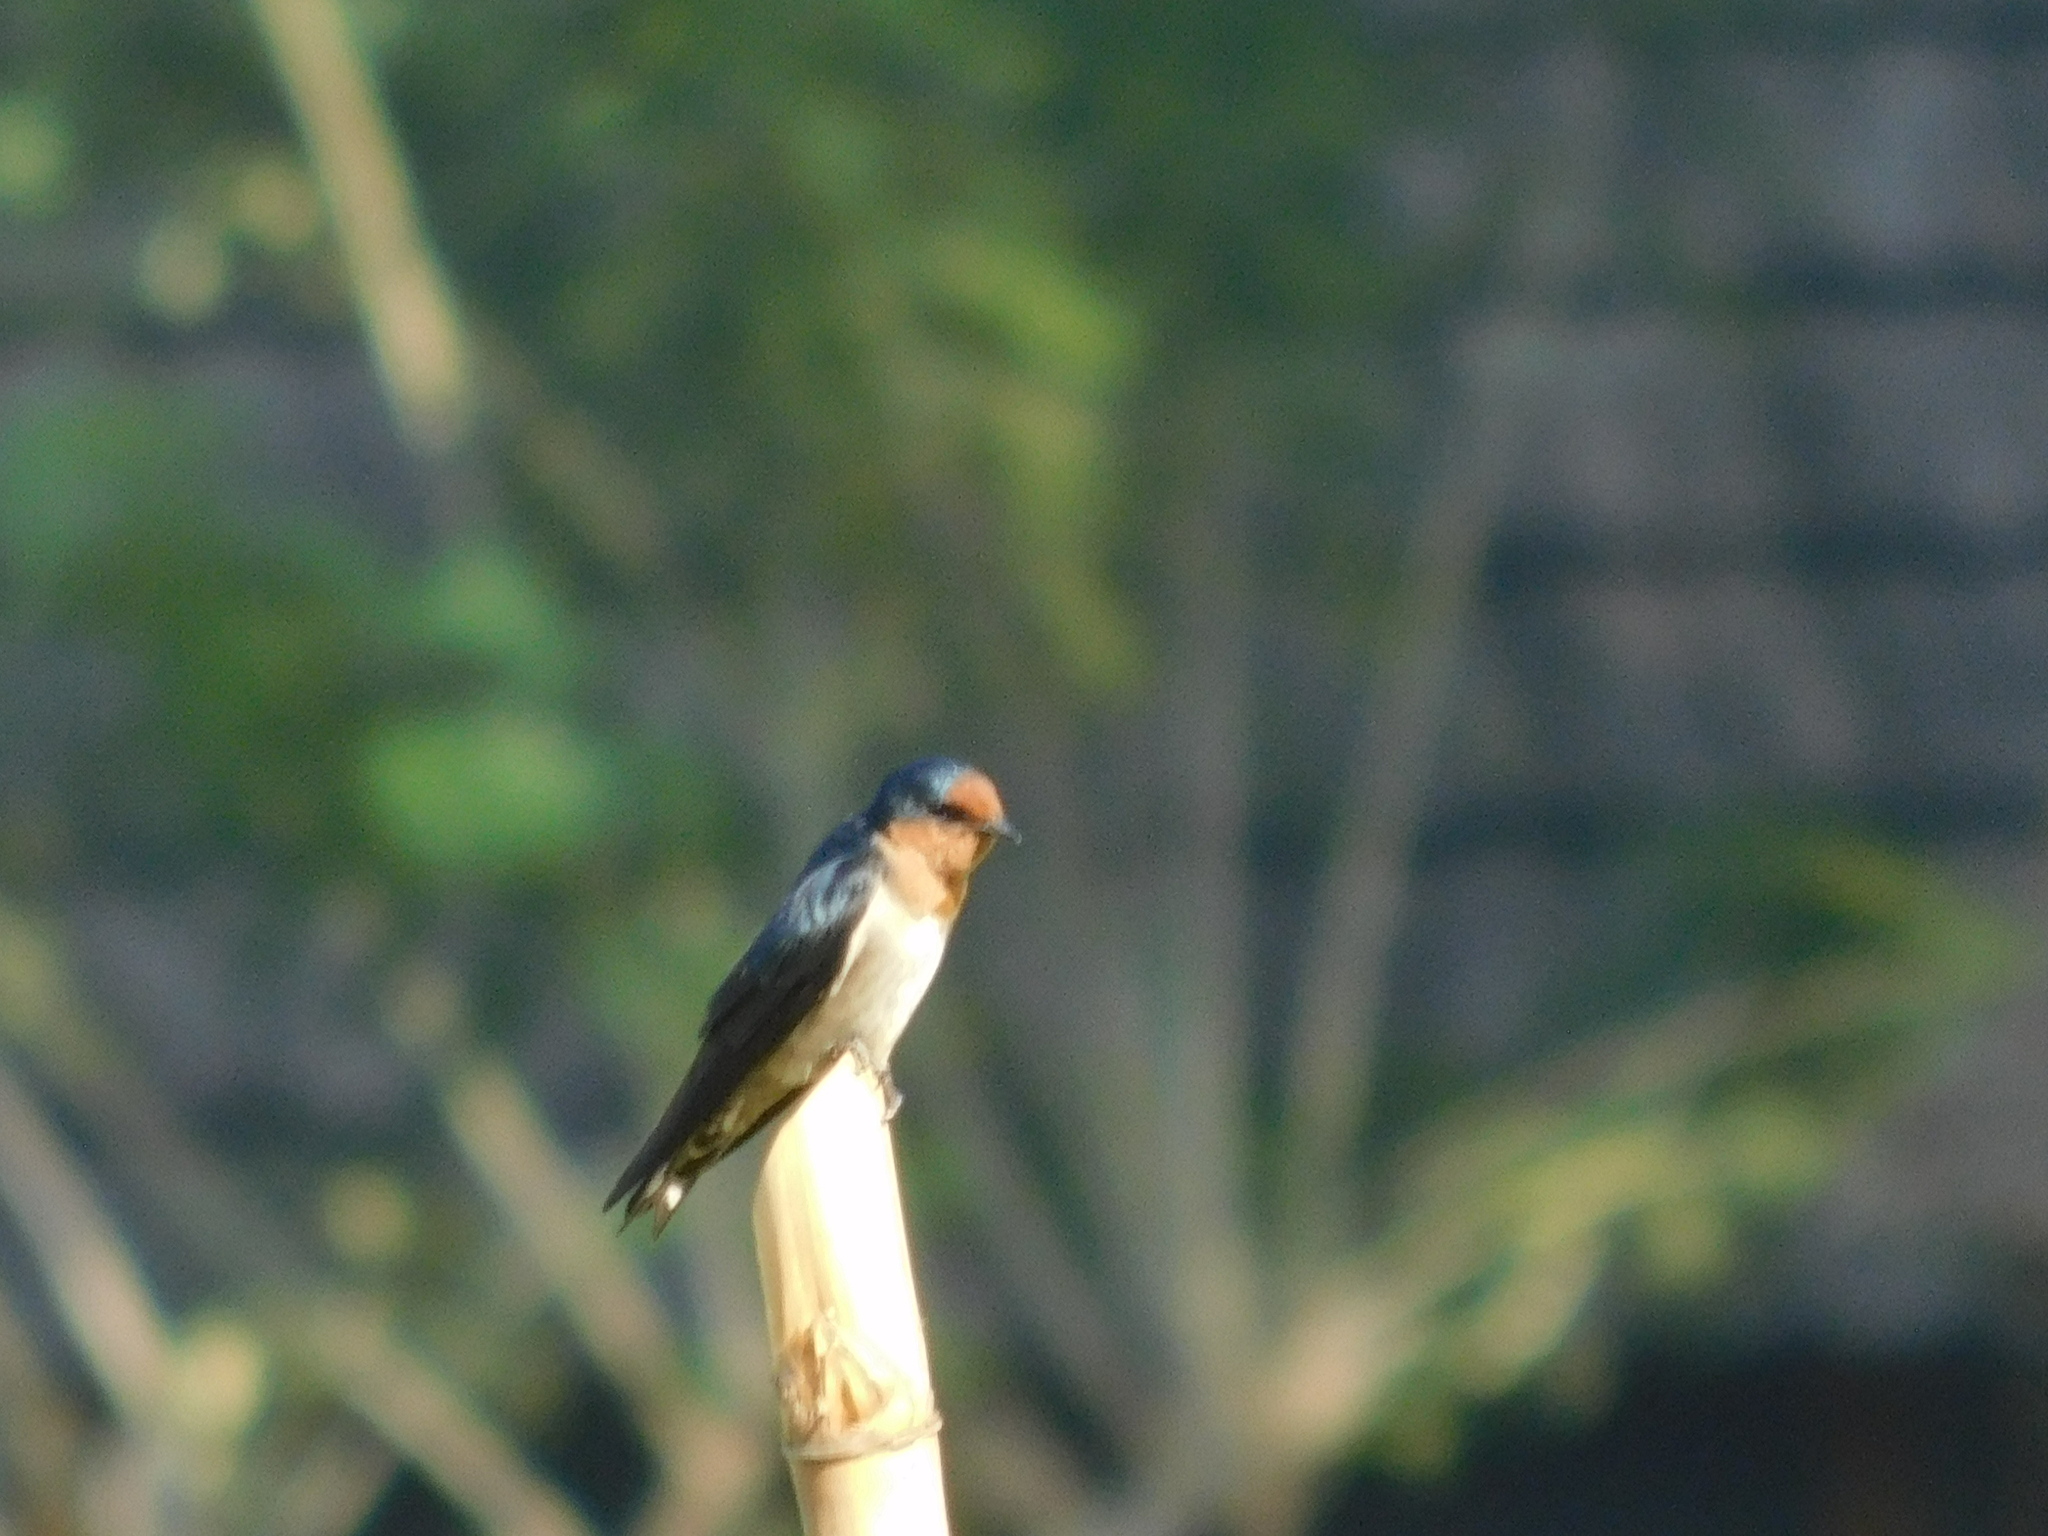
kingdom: Animalia
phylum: Chordata
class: Aves
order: Passeriformes
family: Hirundinidae
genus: Hirundo
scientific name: Hirundo tahitica
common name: Pacific swallow
